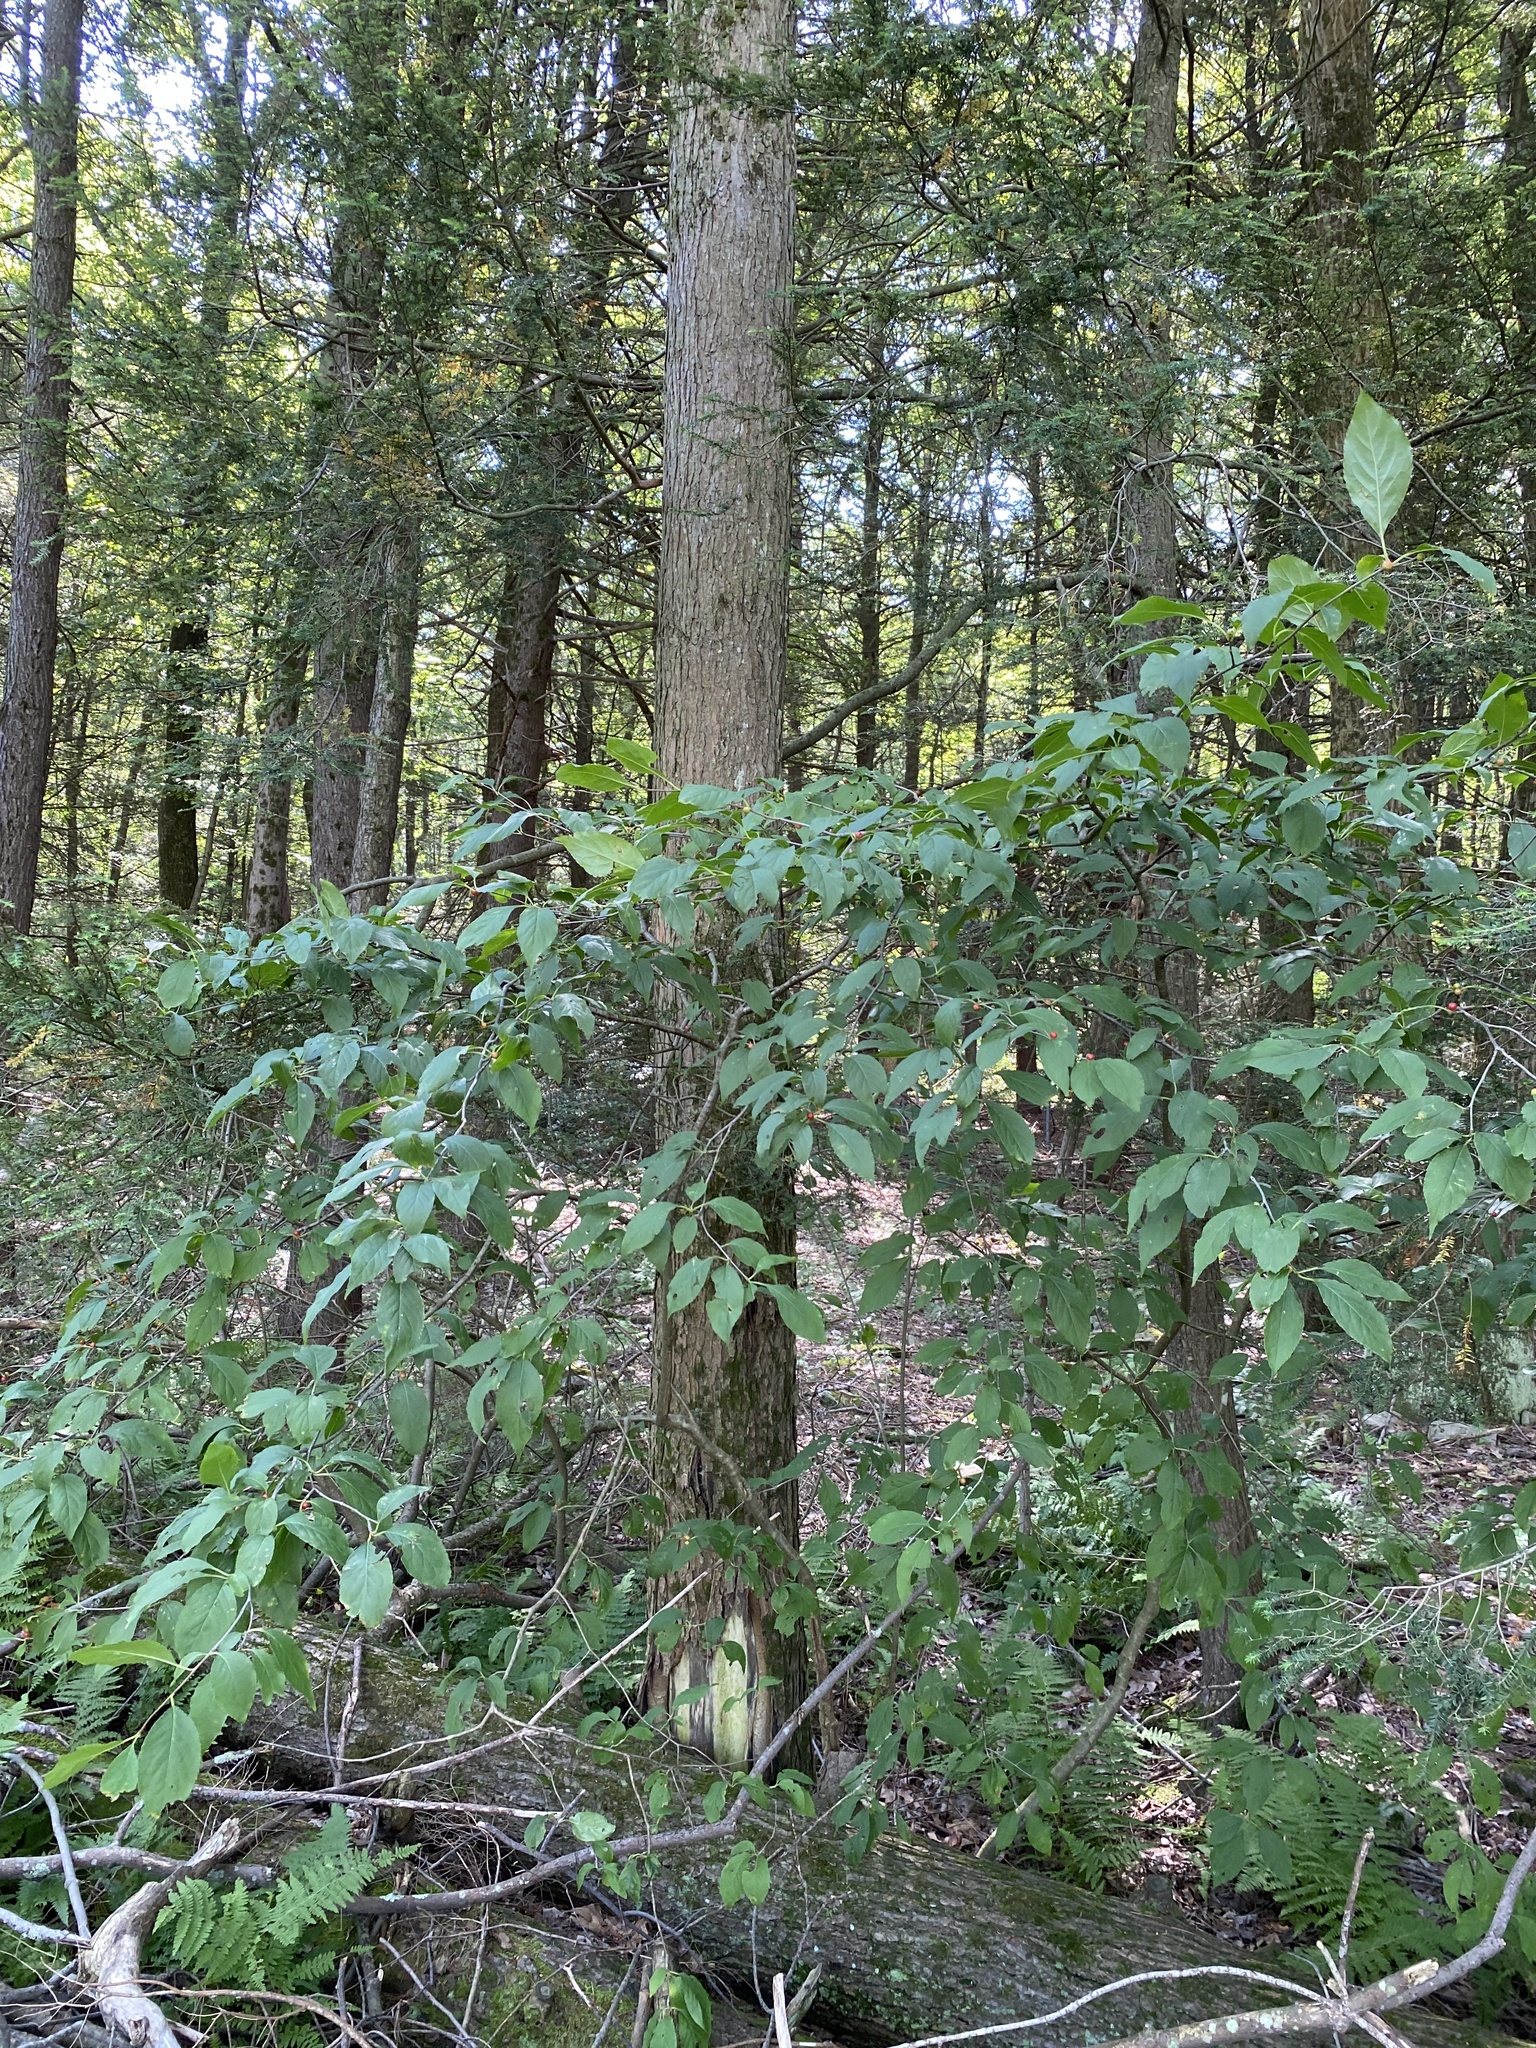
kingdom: Plantae
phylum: Tracheophyta
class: Magnoliopsida
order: Aquifoliales
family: Aquifoliaceae
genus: Ilex
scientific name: Ilex montana
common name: Mountain winterberry
